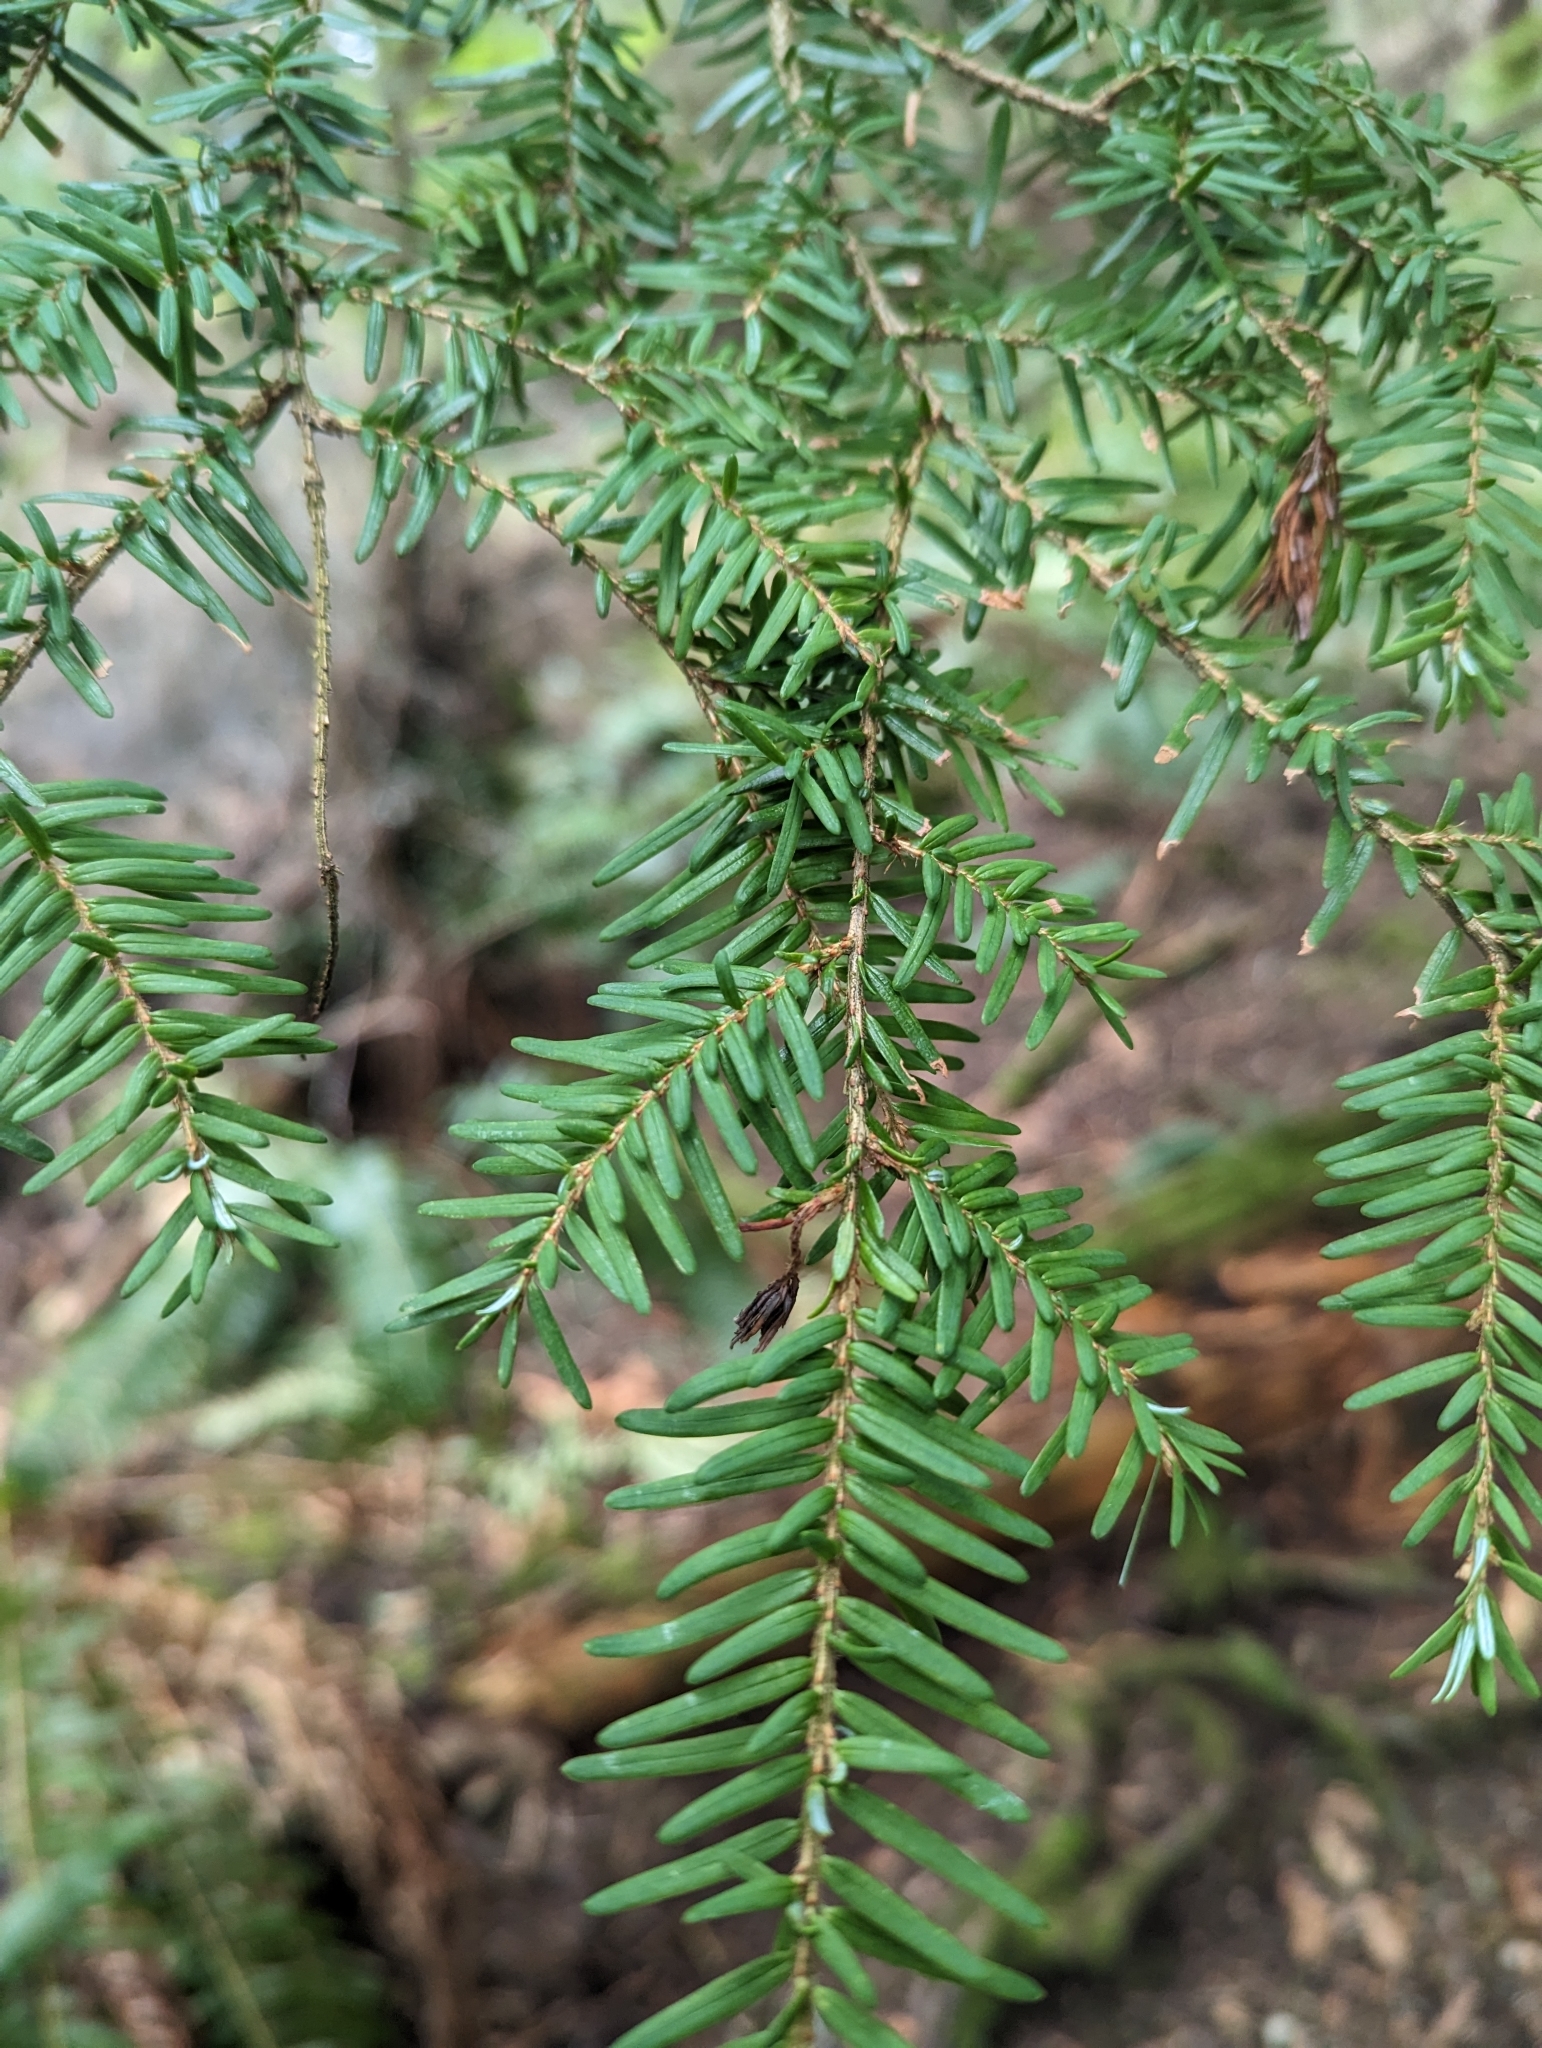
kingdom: Plantae
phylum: Tracheophyta
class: Pinopsida
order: Pinales
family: Pinaceae
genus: Tsuga
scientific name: Tsuga heterophylla
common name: Western hemlock
